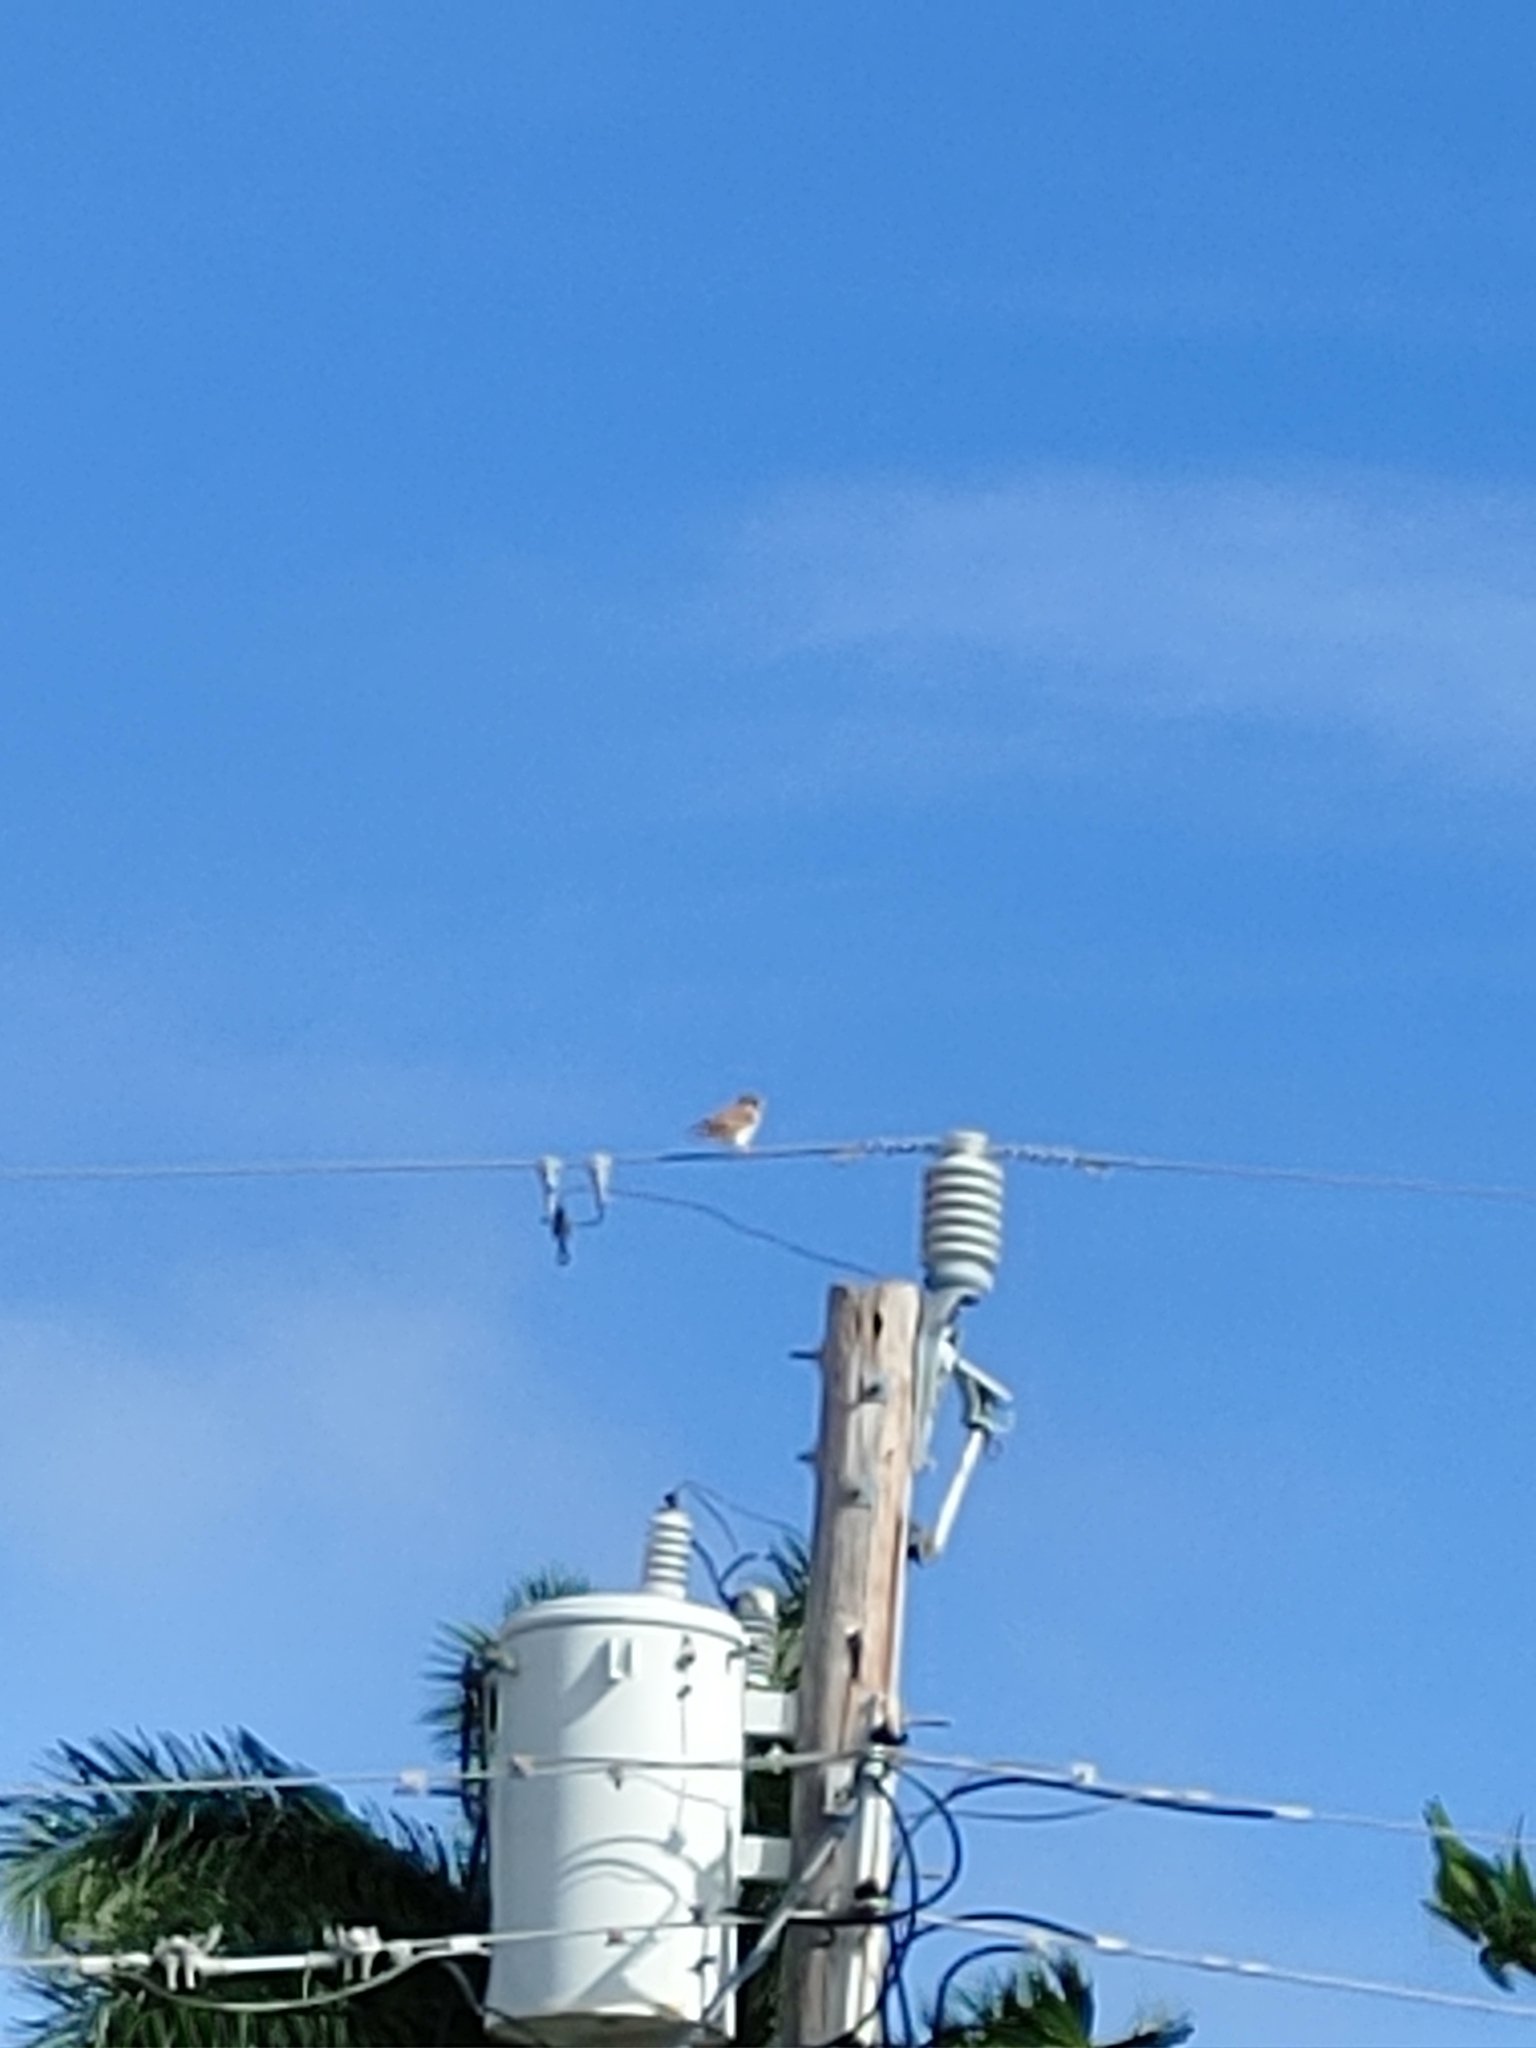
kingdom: Animalia
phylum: Chordata
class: Aves
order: Falconiformes
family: Falconidae
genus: Falco
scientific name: Falco sparverius
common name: American kestrel
